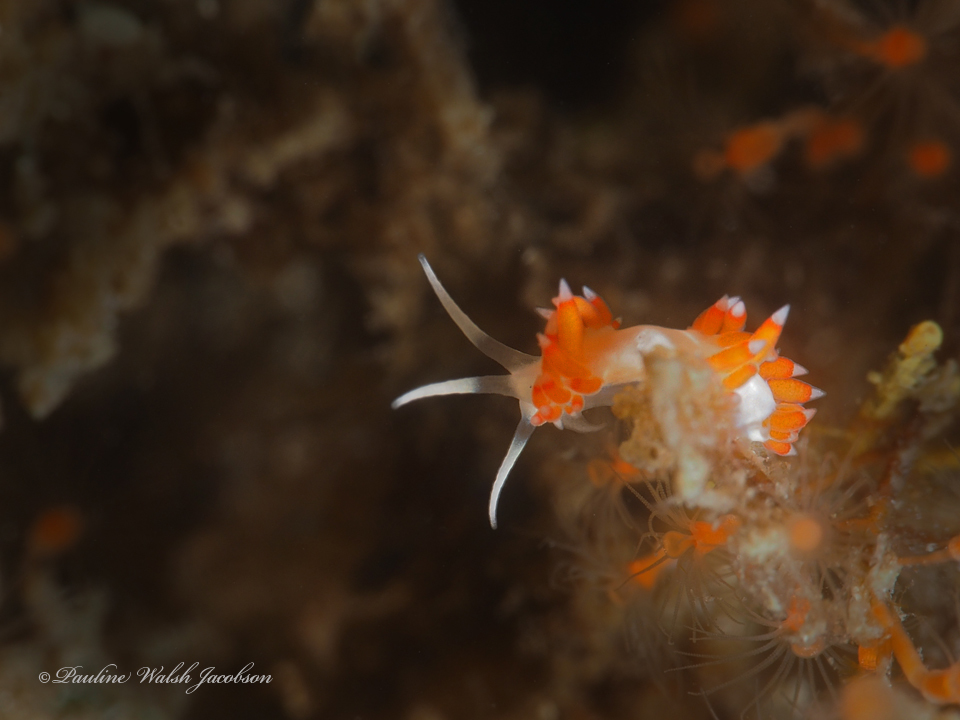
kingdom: Animalia
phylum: Mollusca
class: Gastropoda
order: Nudibranchia
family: Flabellinidae
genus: Flabellina
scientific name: Flabellina dushia
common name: Dushia flabellina
